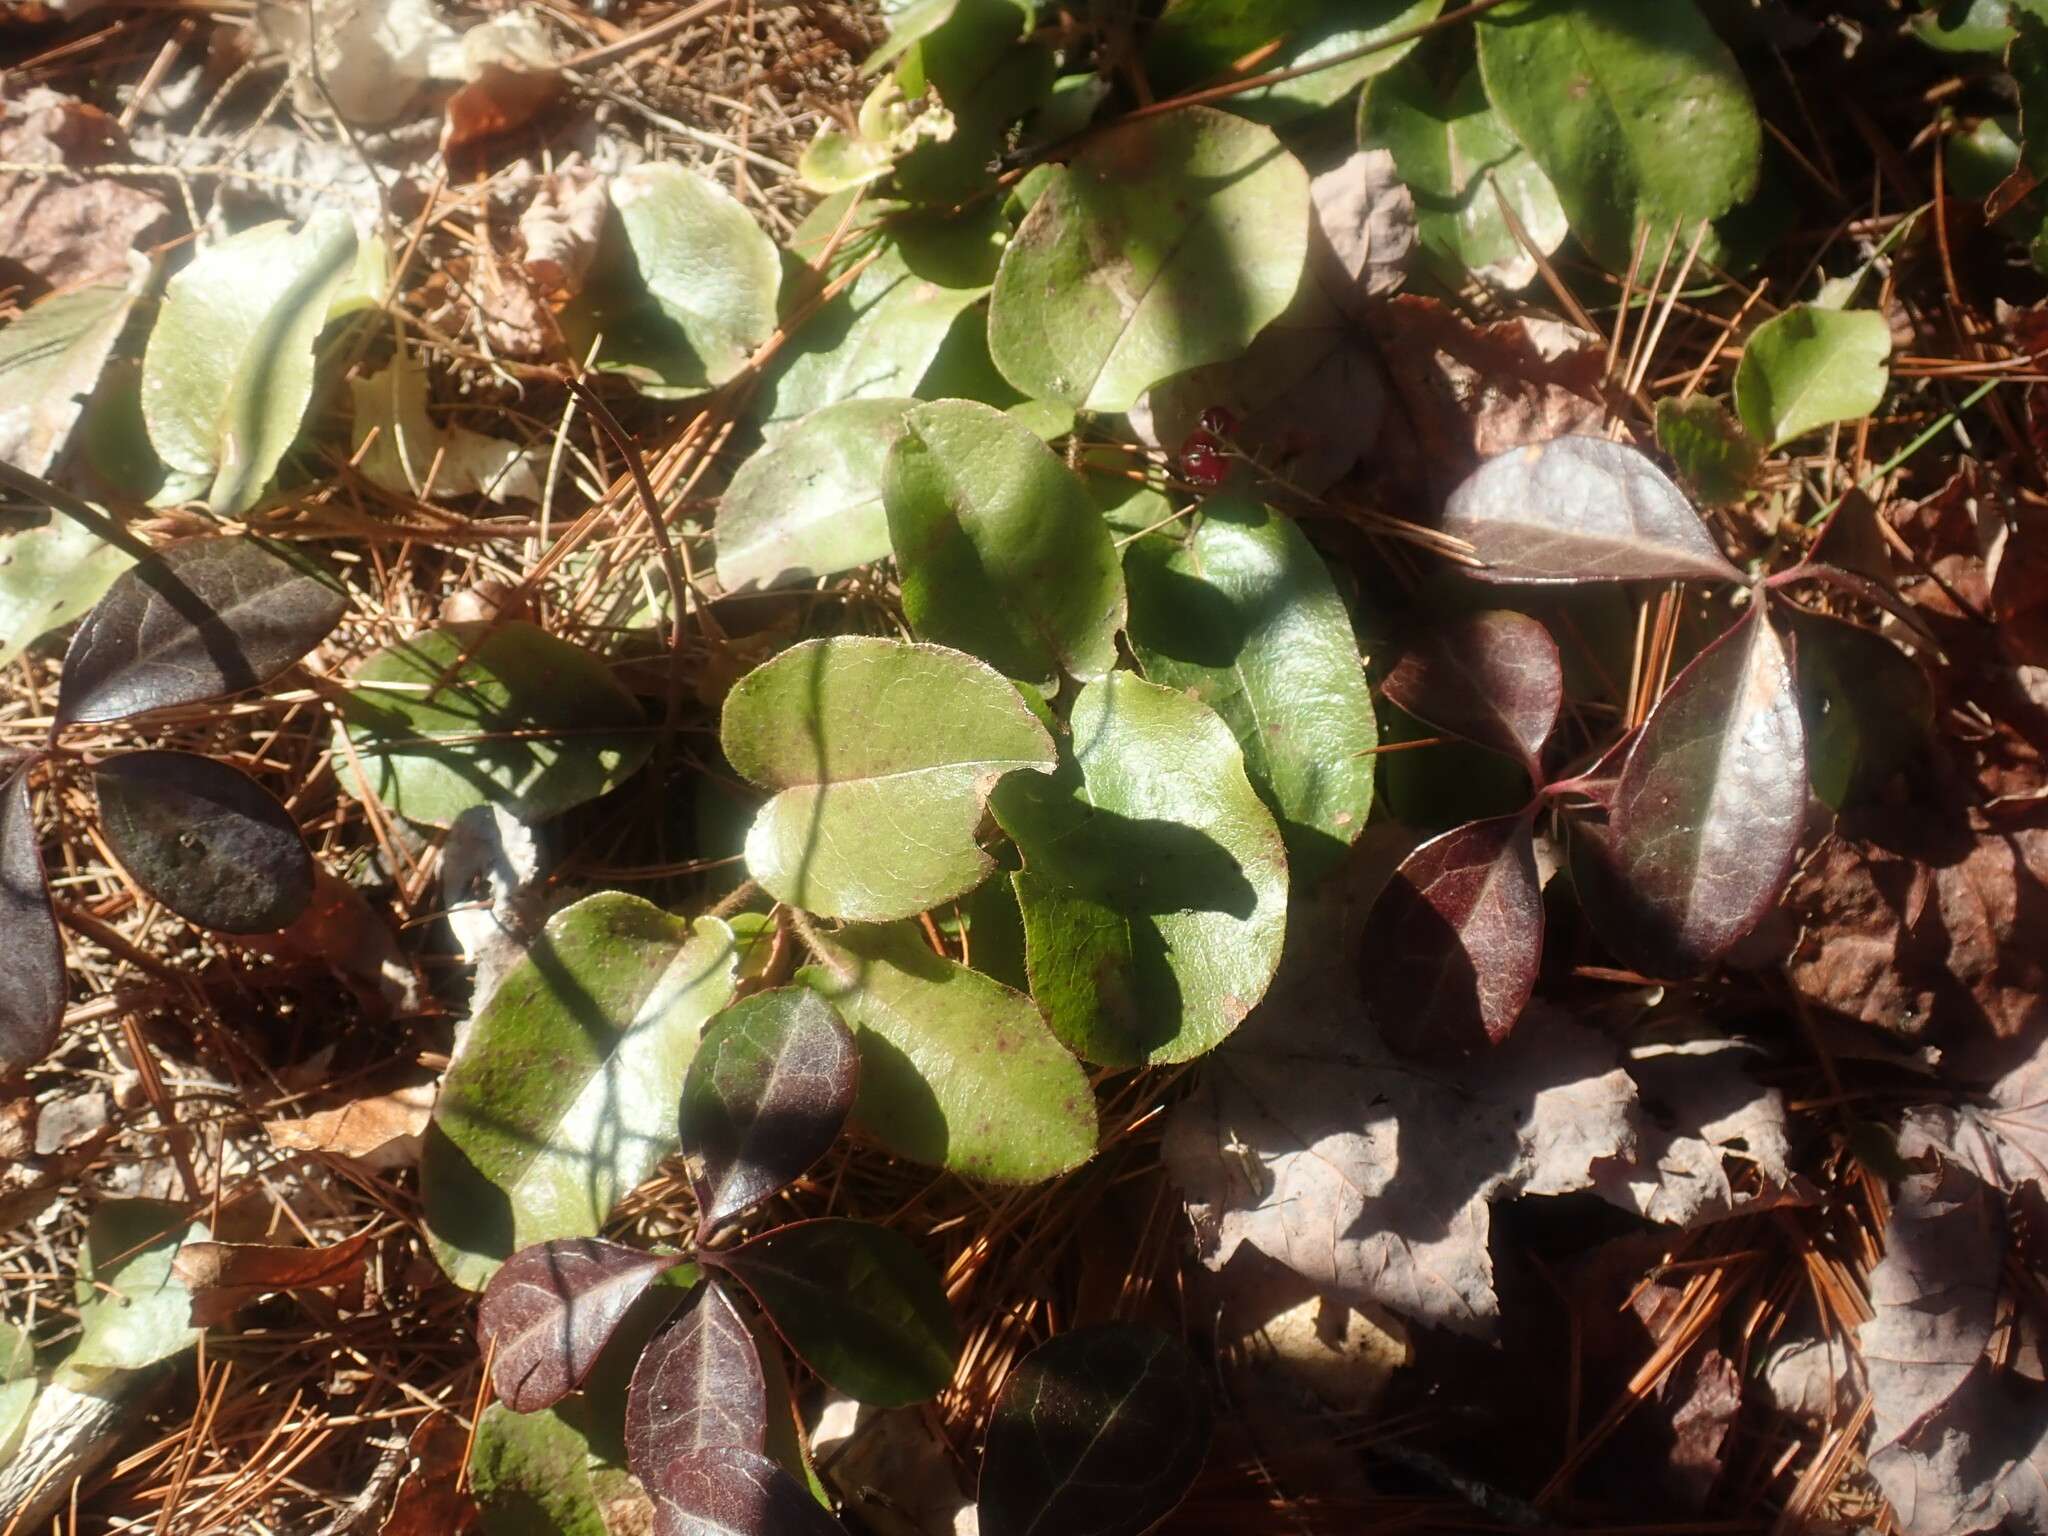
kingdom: Plantae
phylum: Tracheophyta
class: Magnoliopsida
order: Ericales
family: Ericaceae
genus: Epigaea
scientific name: Epigaea repens
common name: Gravelroot
